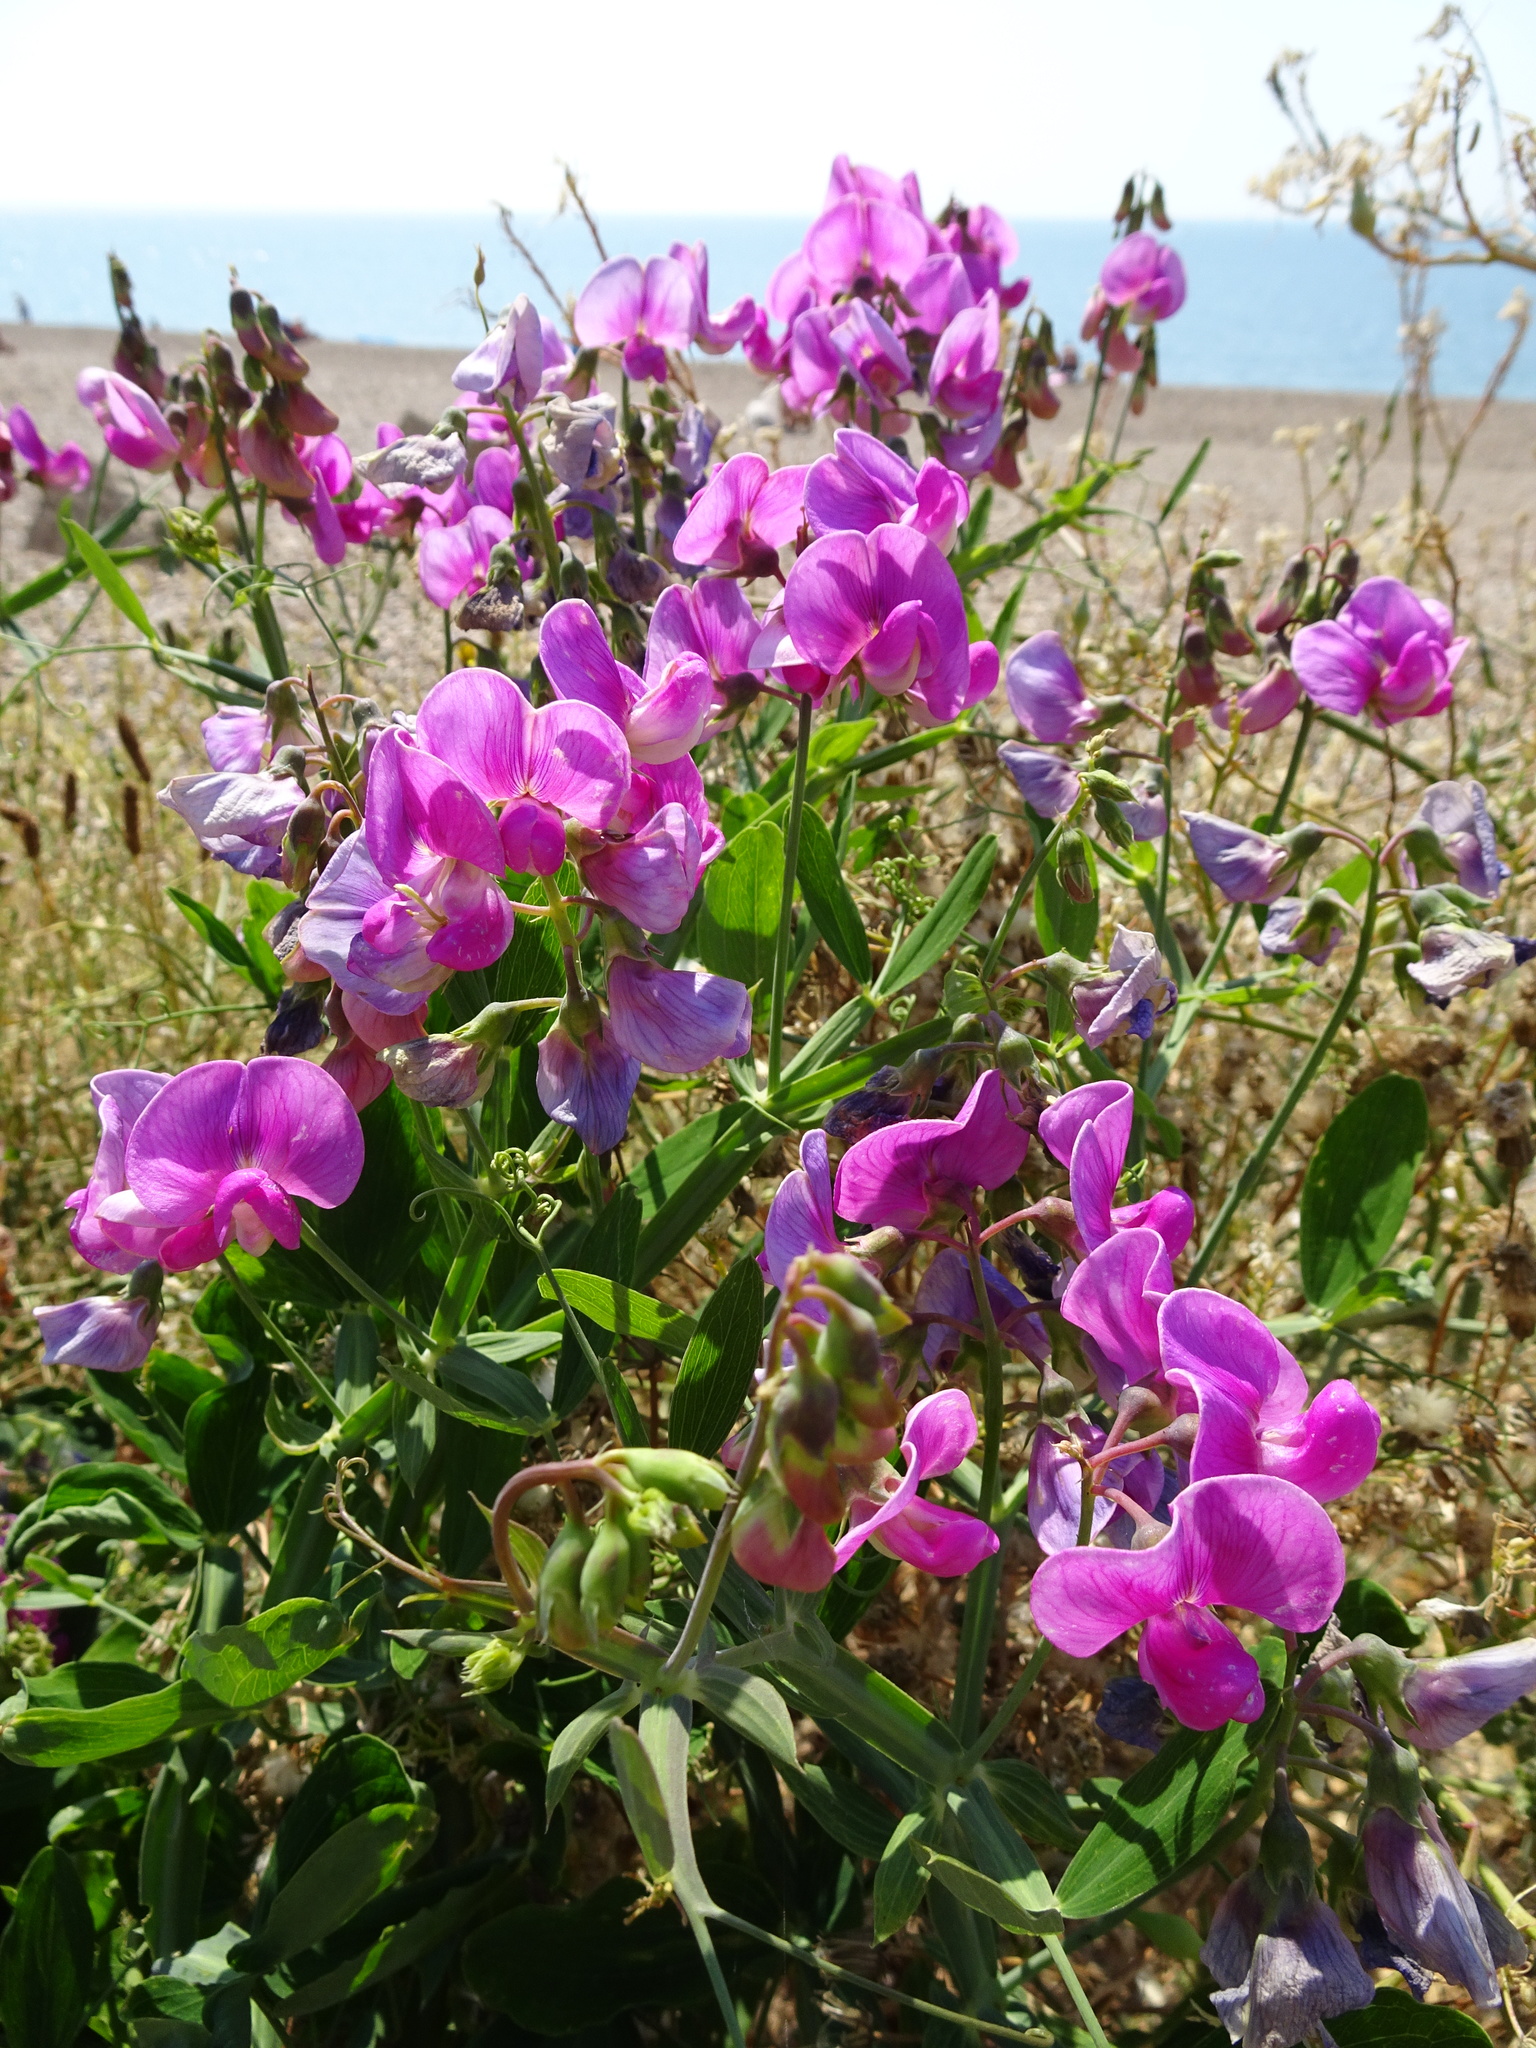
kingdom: Plantae
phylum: Tracheophyta
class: Magnoliopsida
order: Fabales
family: Fabaceae
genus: Lathyrus
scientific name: Lathyrus latifolius
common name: Perennial pea
